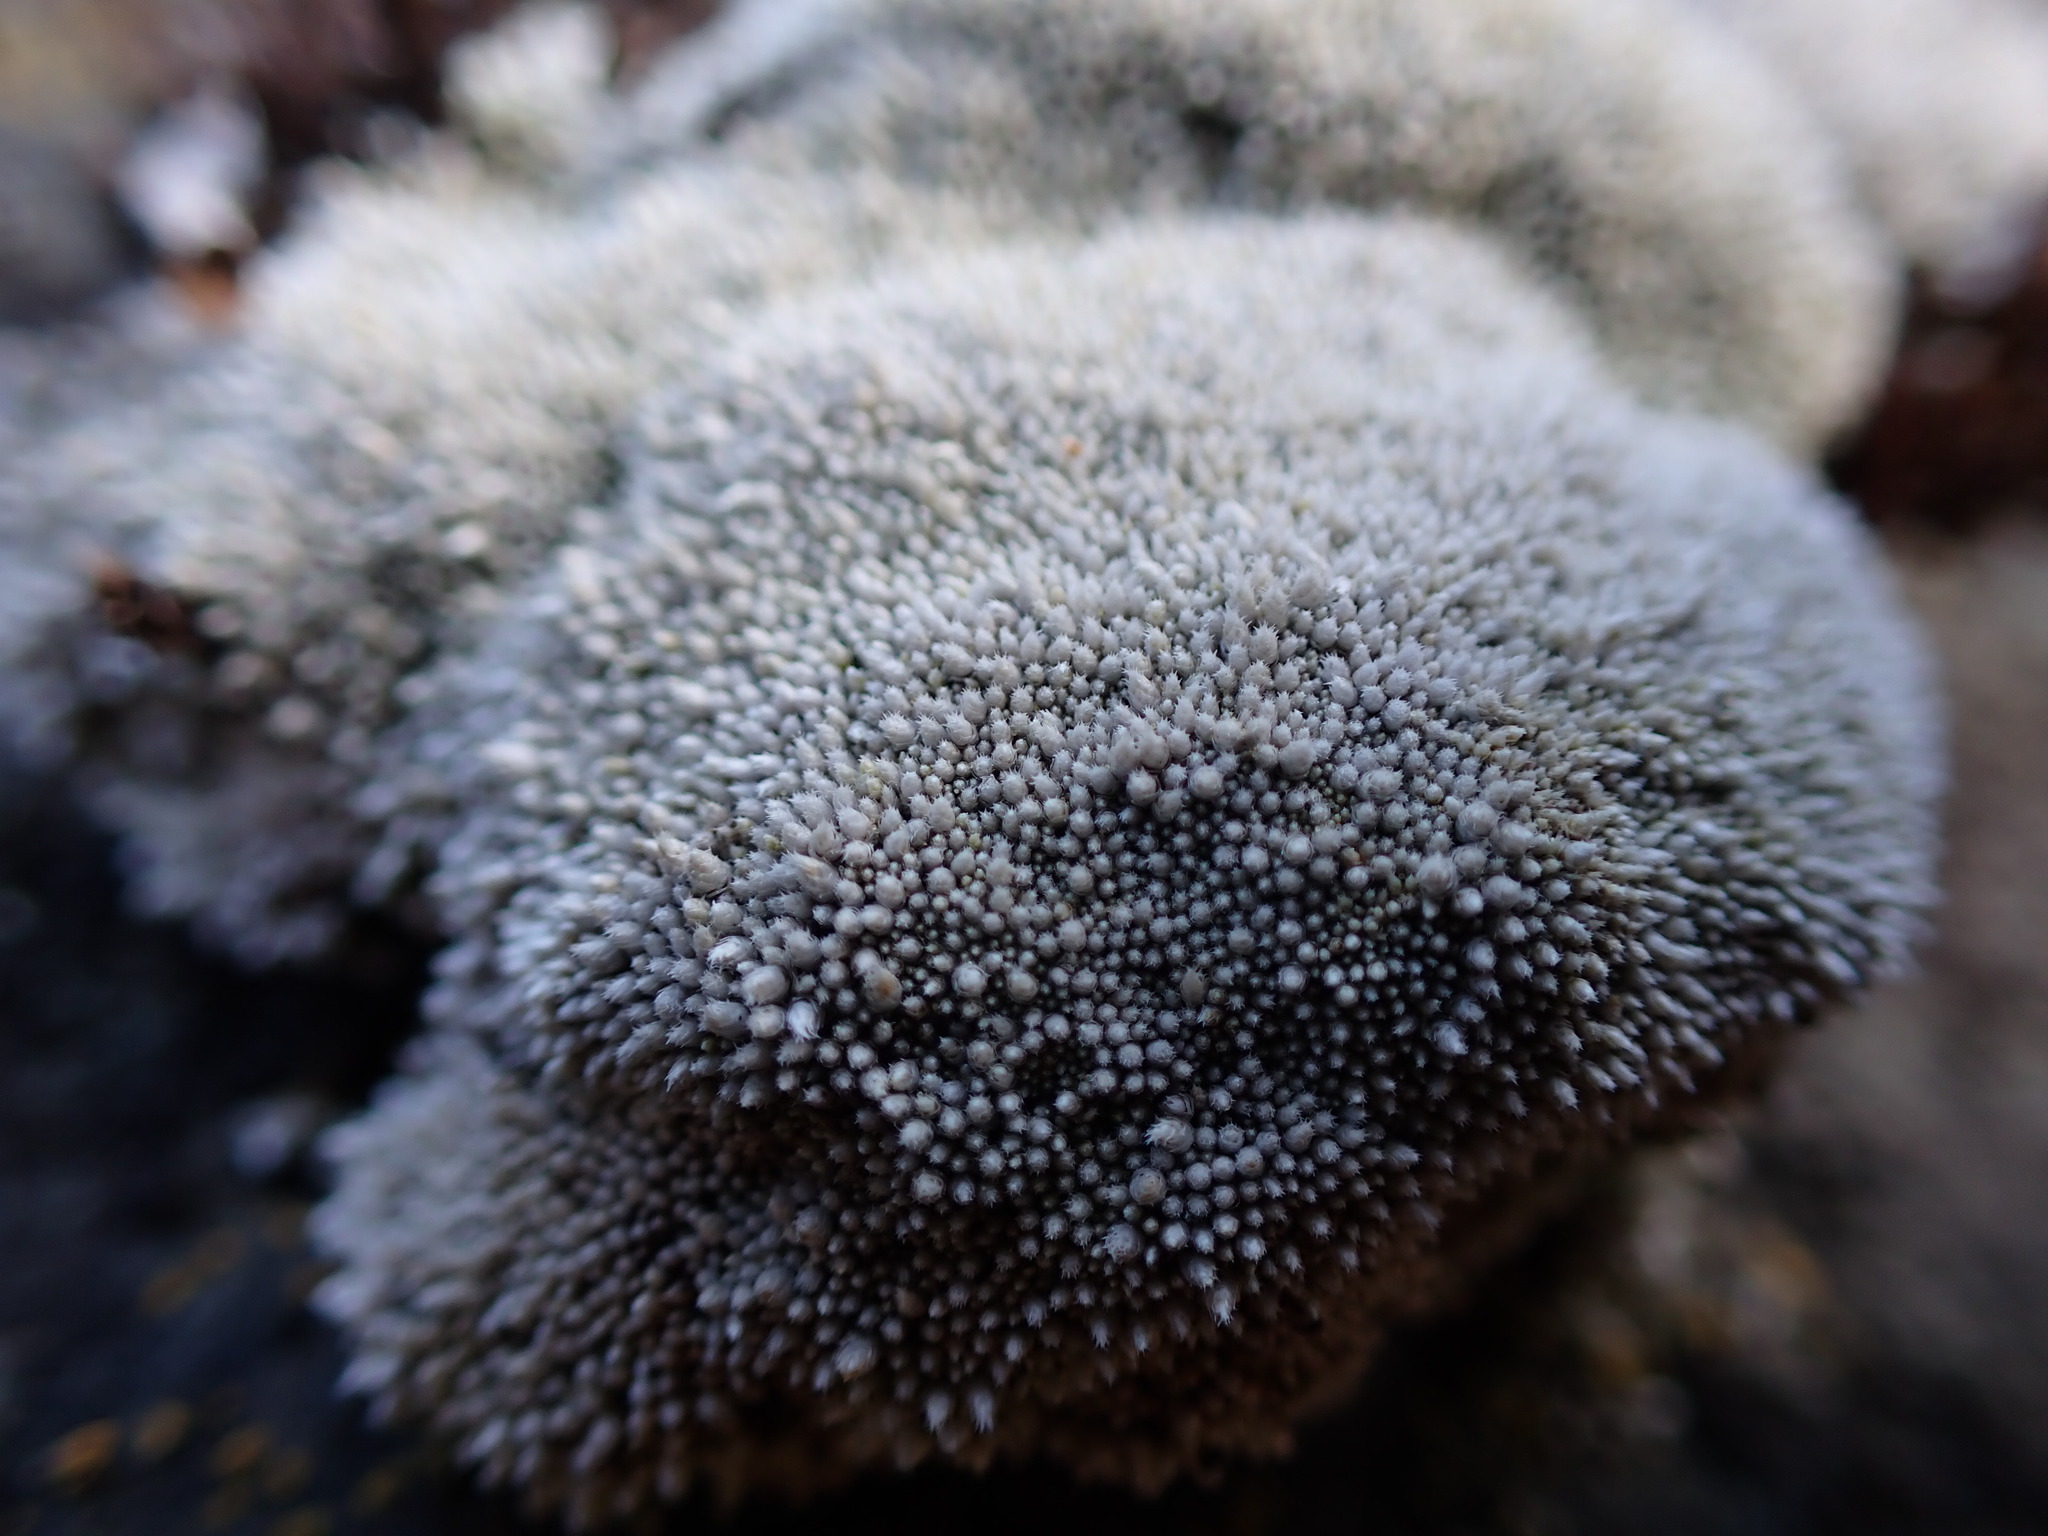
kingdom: Plantae
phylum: Bryophyta
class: Bryopsida
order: Bryales
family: Bryaceae
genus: Bryum
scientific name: Bryum argenteum
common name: Silver-moss
